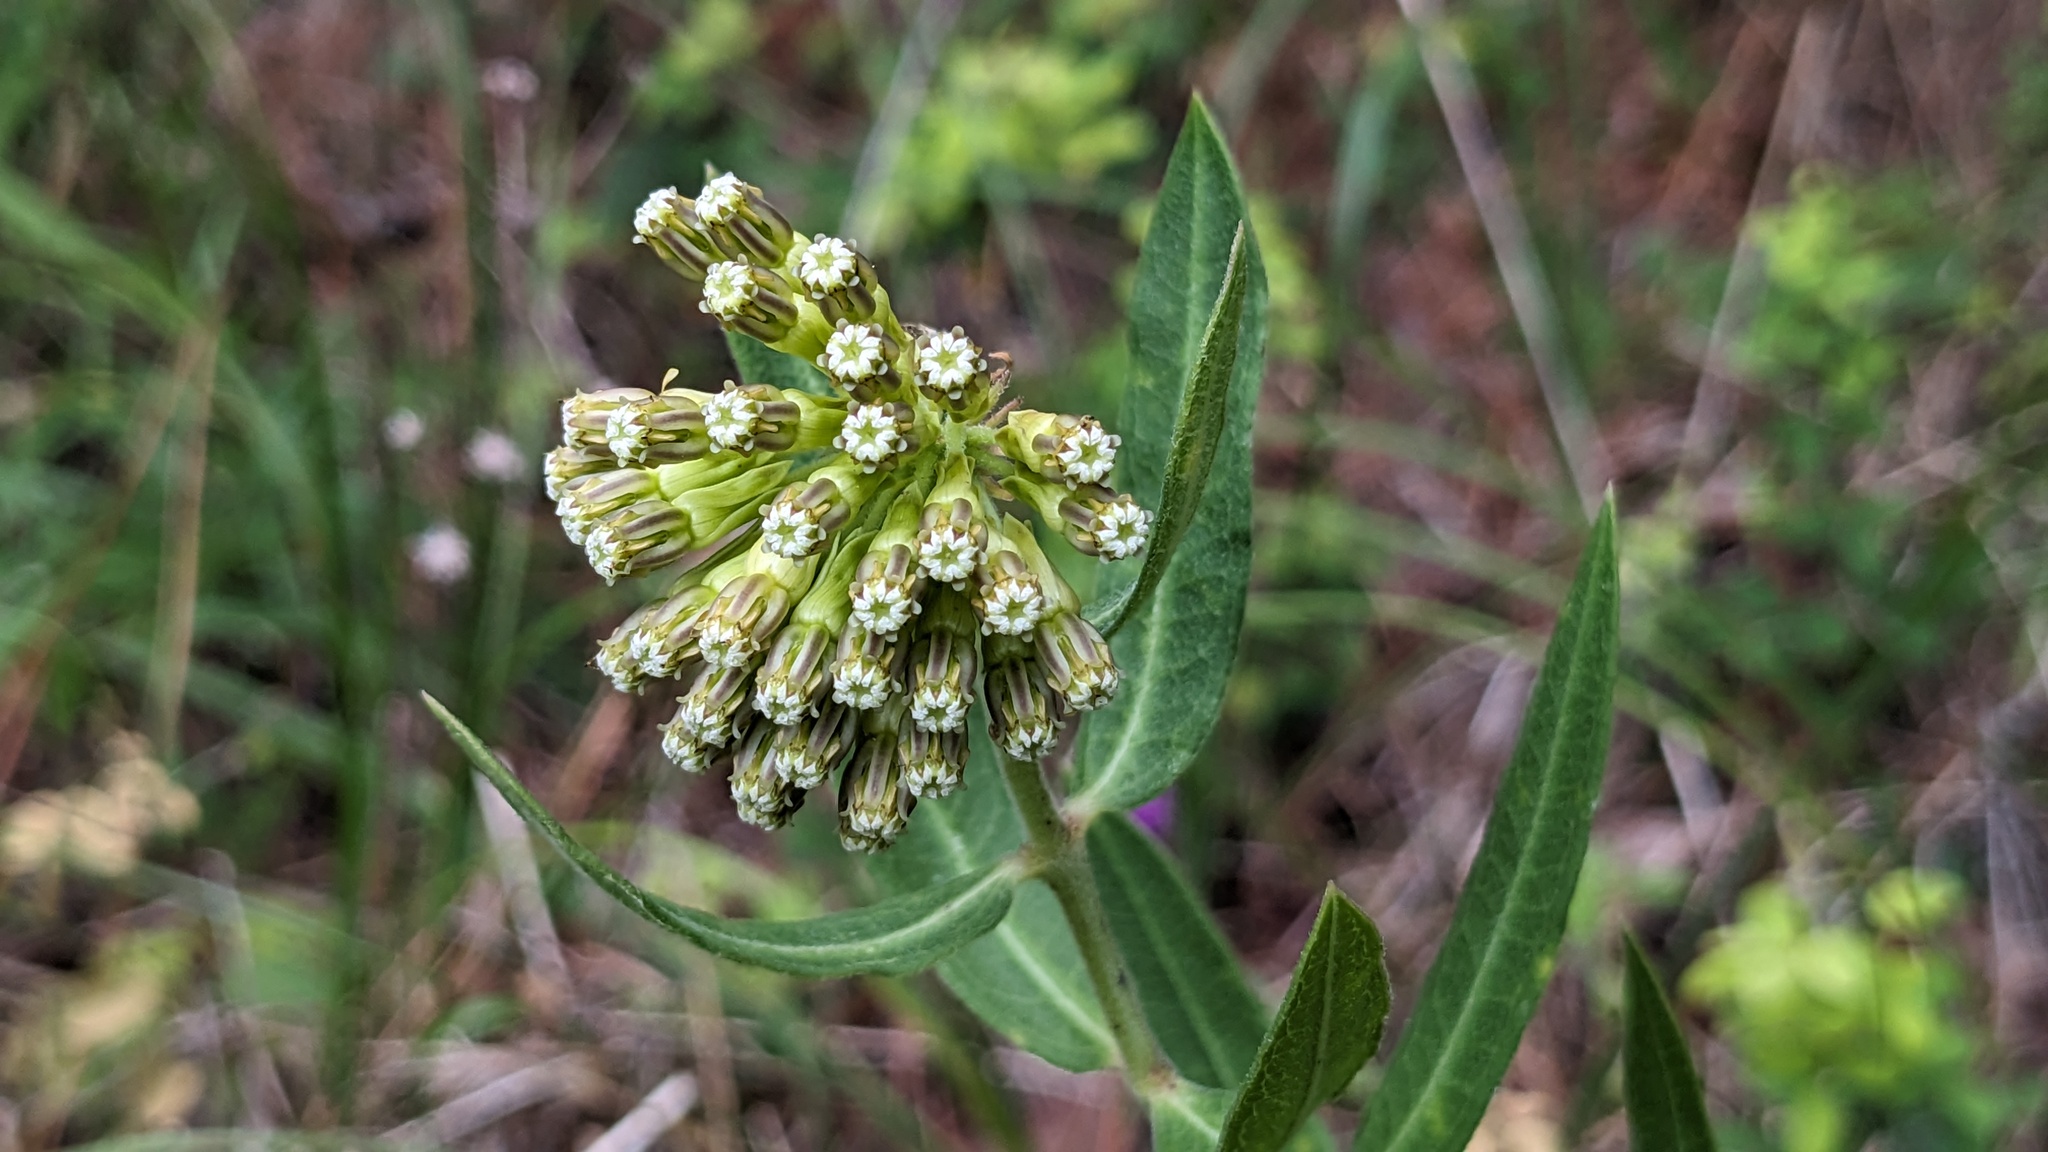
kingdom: Plantae
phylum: Tracheophyta
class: Magnoliopsida
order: Gentianales
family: Apocynaceae
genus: Asclepias
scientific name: Asclepias viridiflora
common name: Green comet milkweed
